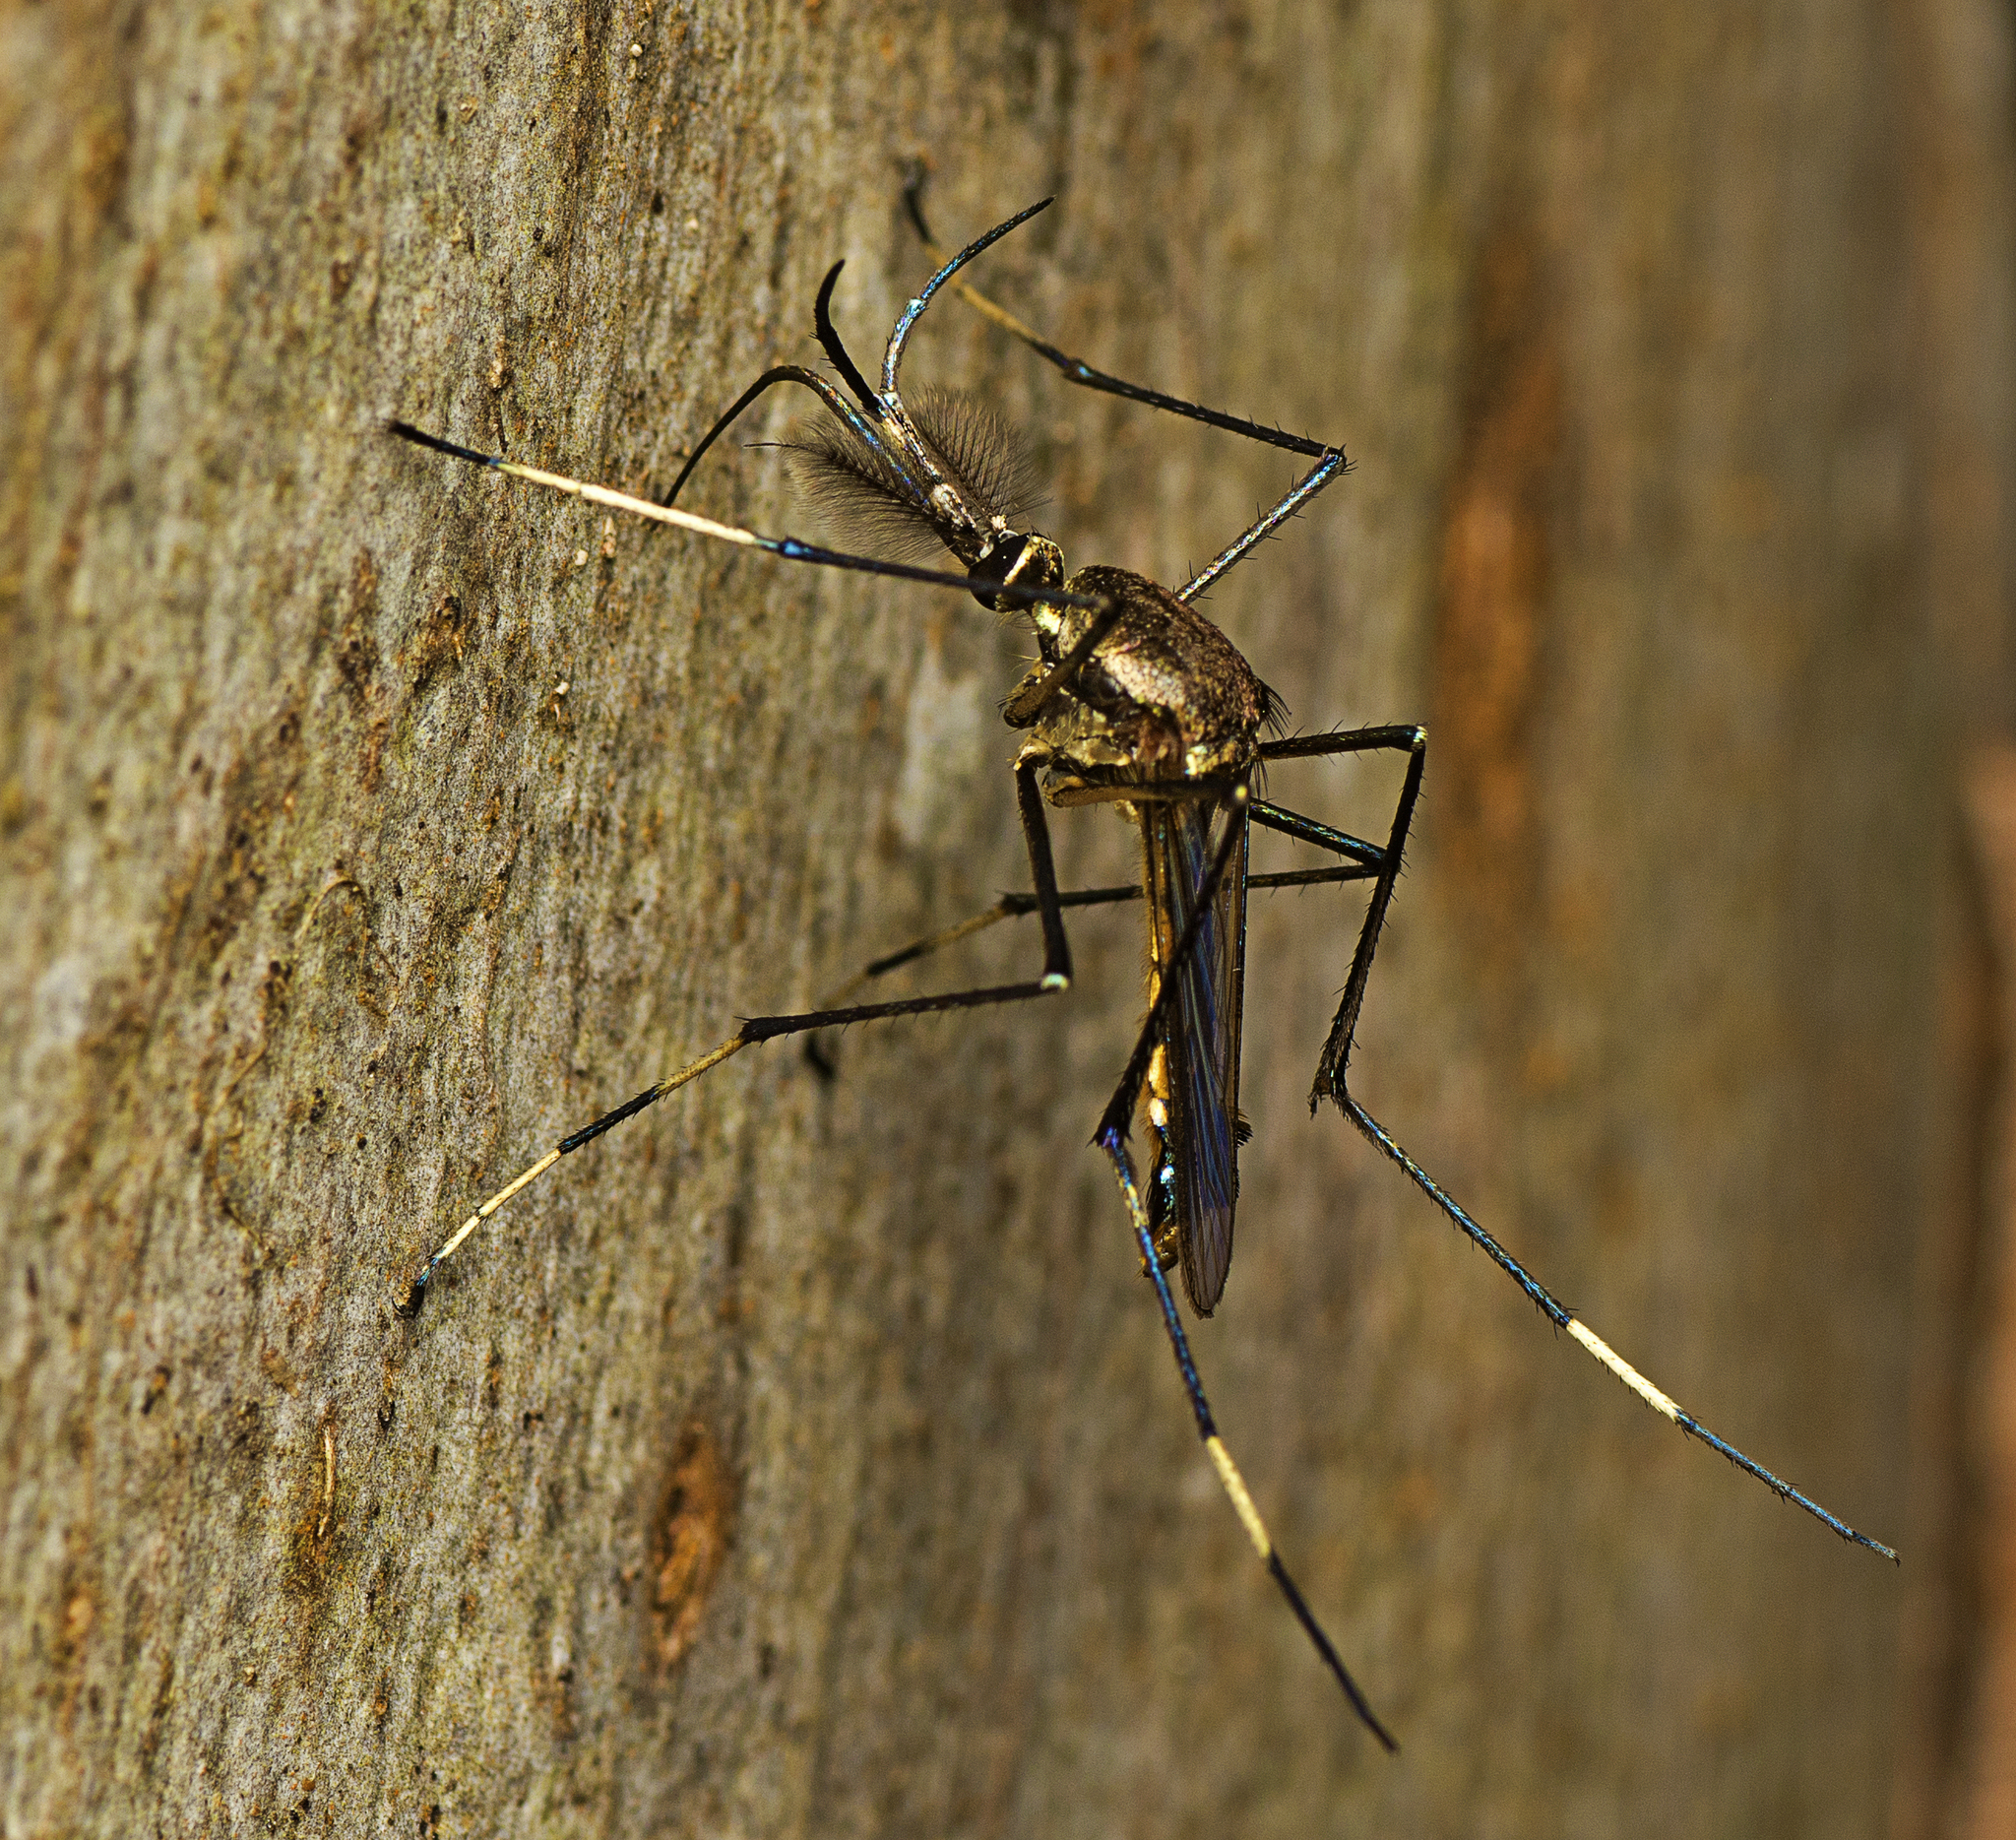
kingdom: Animalia
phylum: Arthropoda
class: Insecta
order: Diptera
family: Culicidae
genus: Toxorhynchites
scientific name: Toxorhynchites speciosus
